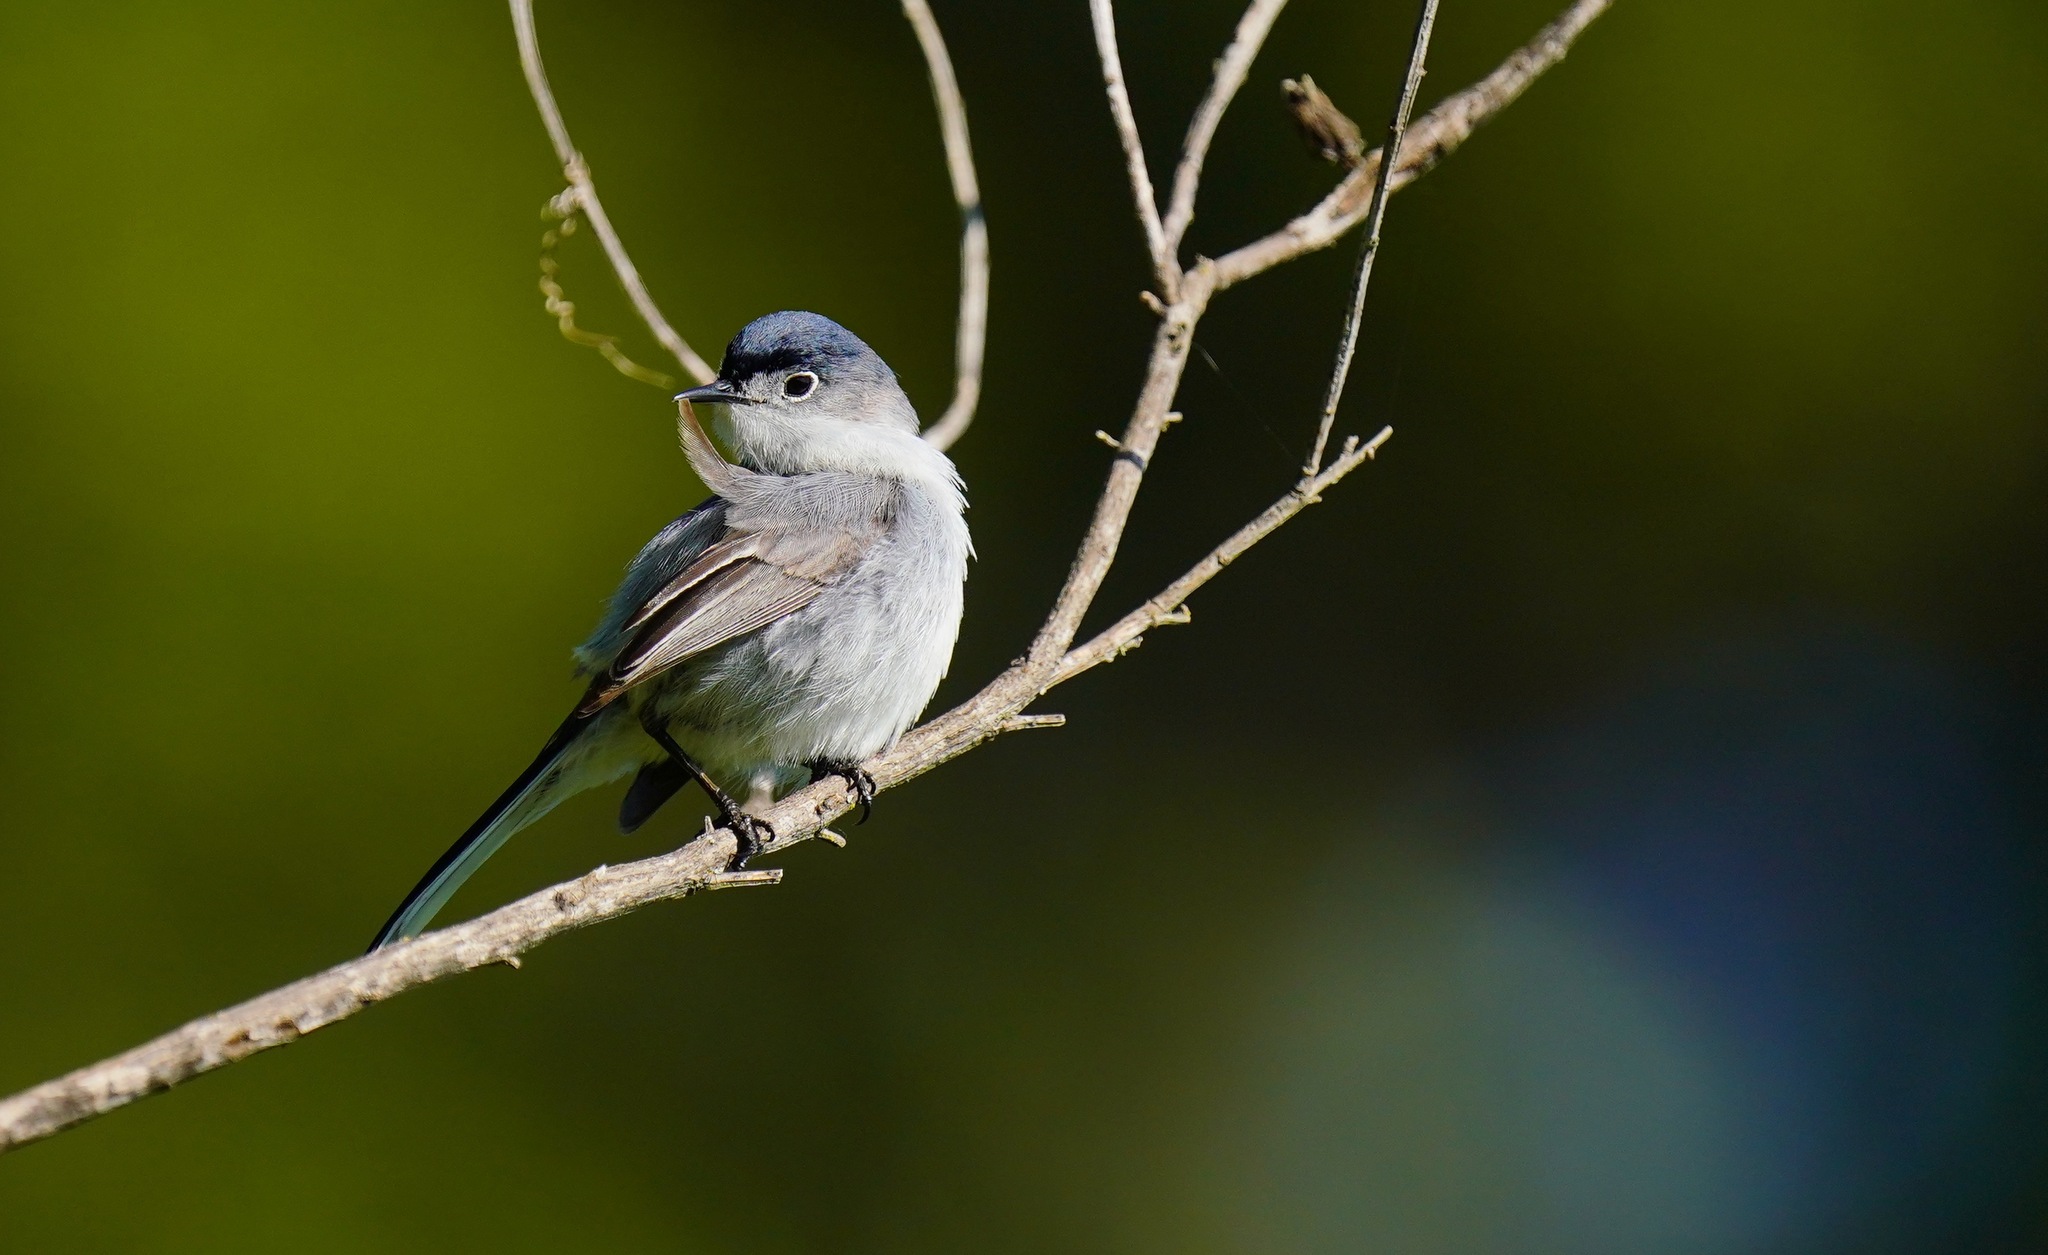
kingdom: Animalia
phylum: Chordata
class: Aves
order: Passeriformes
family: Polioptilidae
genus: Polioptila
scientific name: Polioptila caerulea
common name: Blue-gray gnatcatcher
